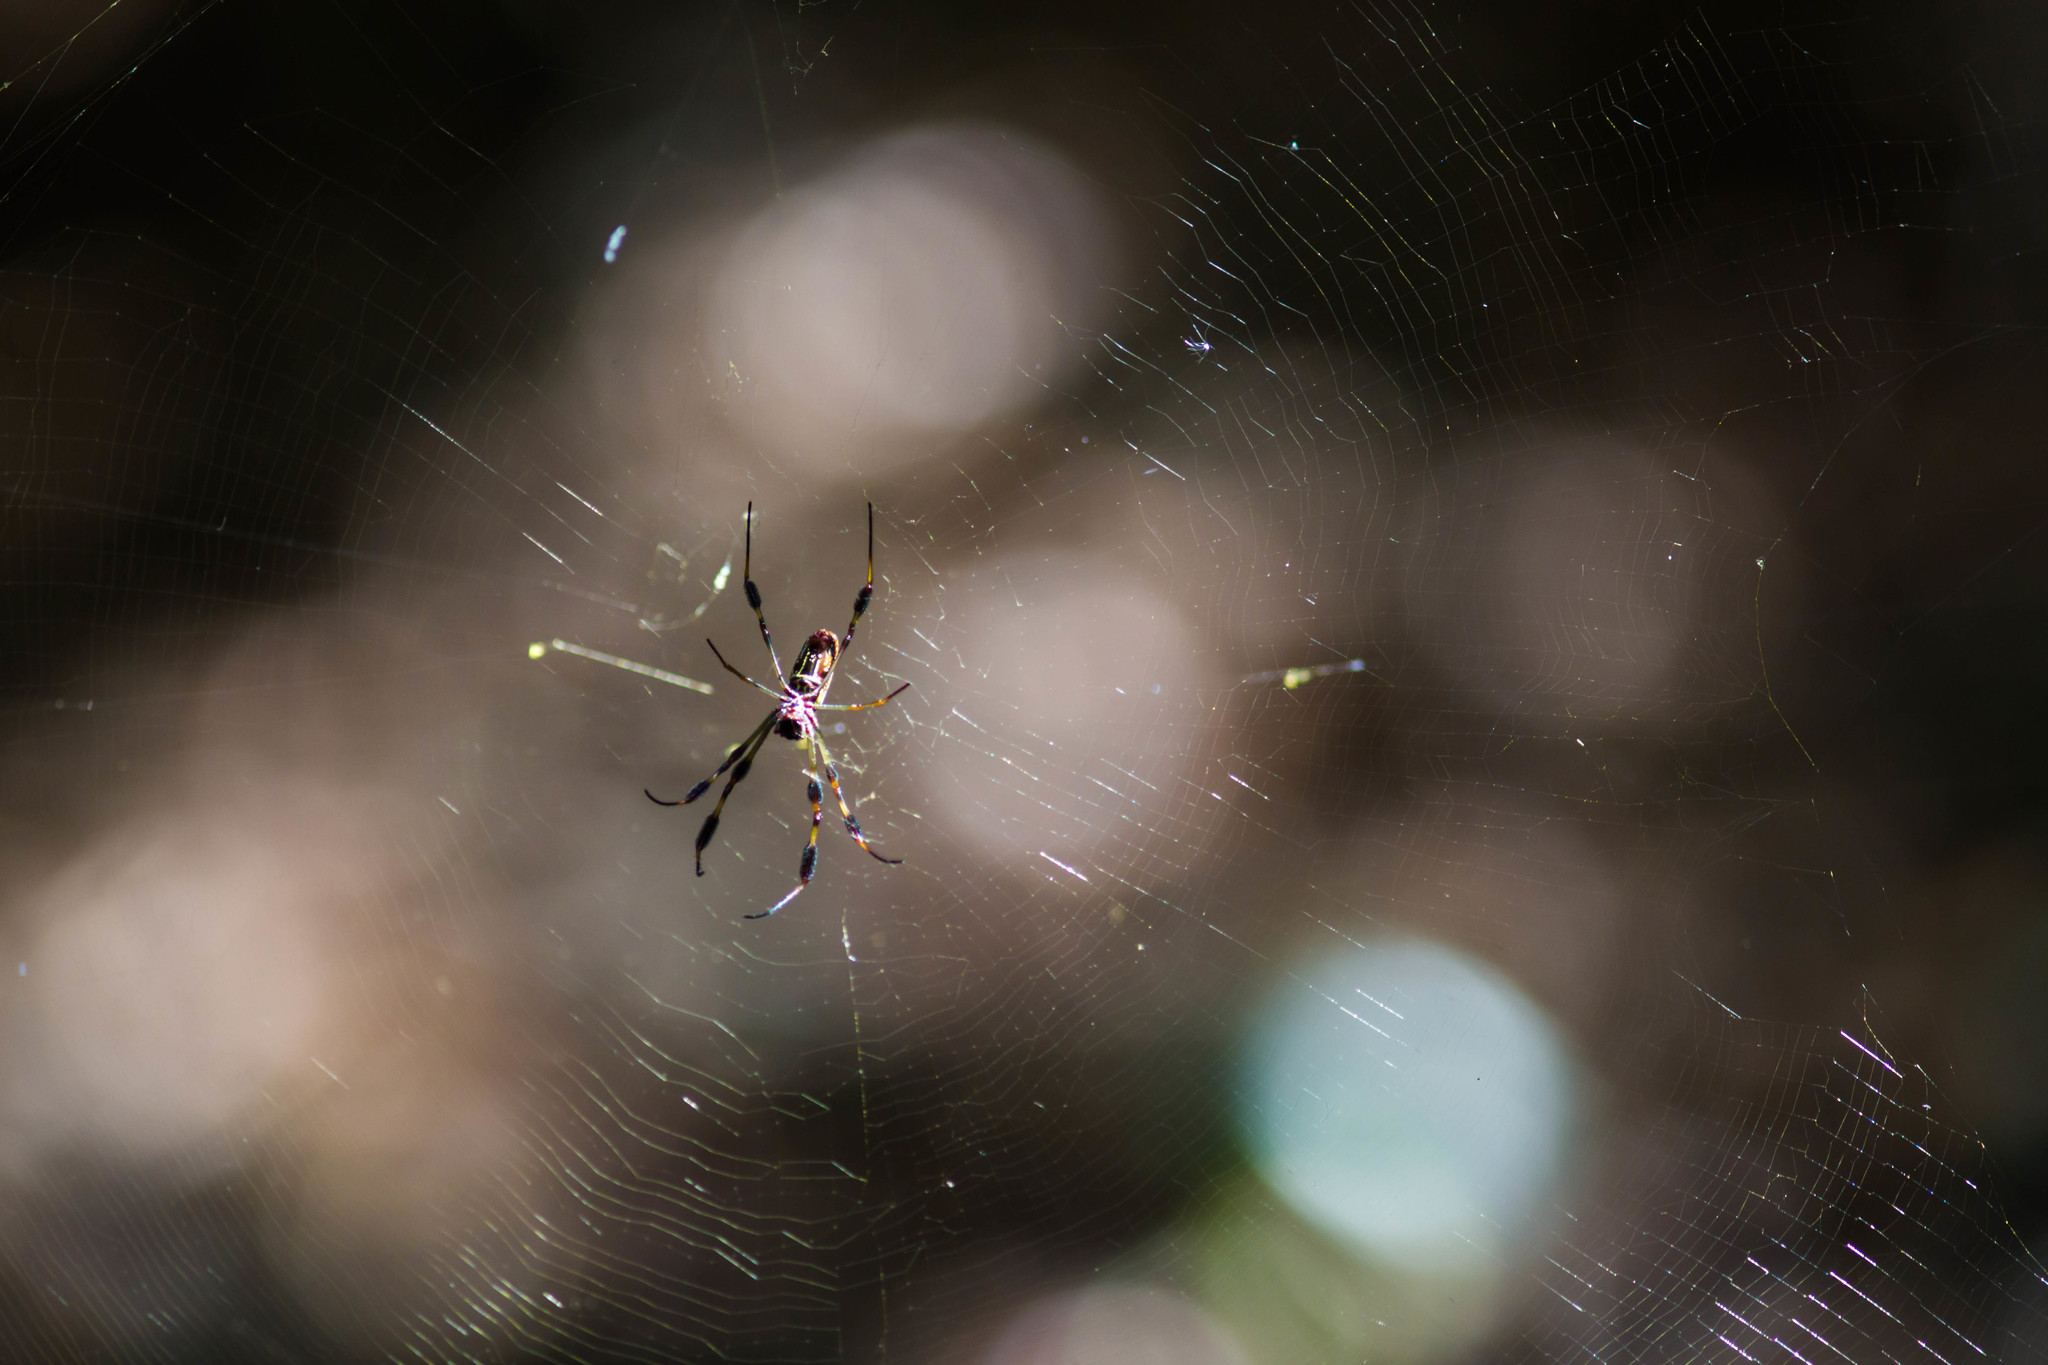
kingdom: Animalia
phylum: Arthropoda
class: Arachnida
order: Araneae
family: Araneidae
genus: Trichonephila
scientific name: Trichonephila clavipes
